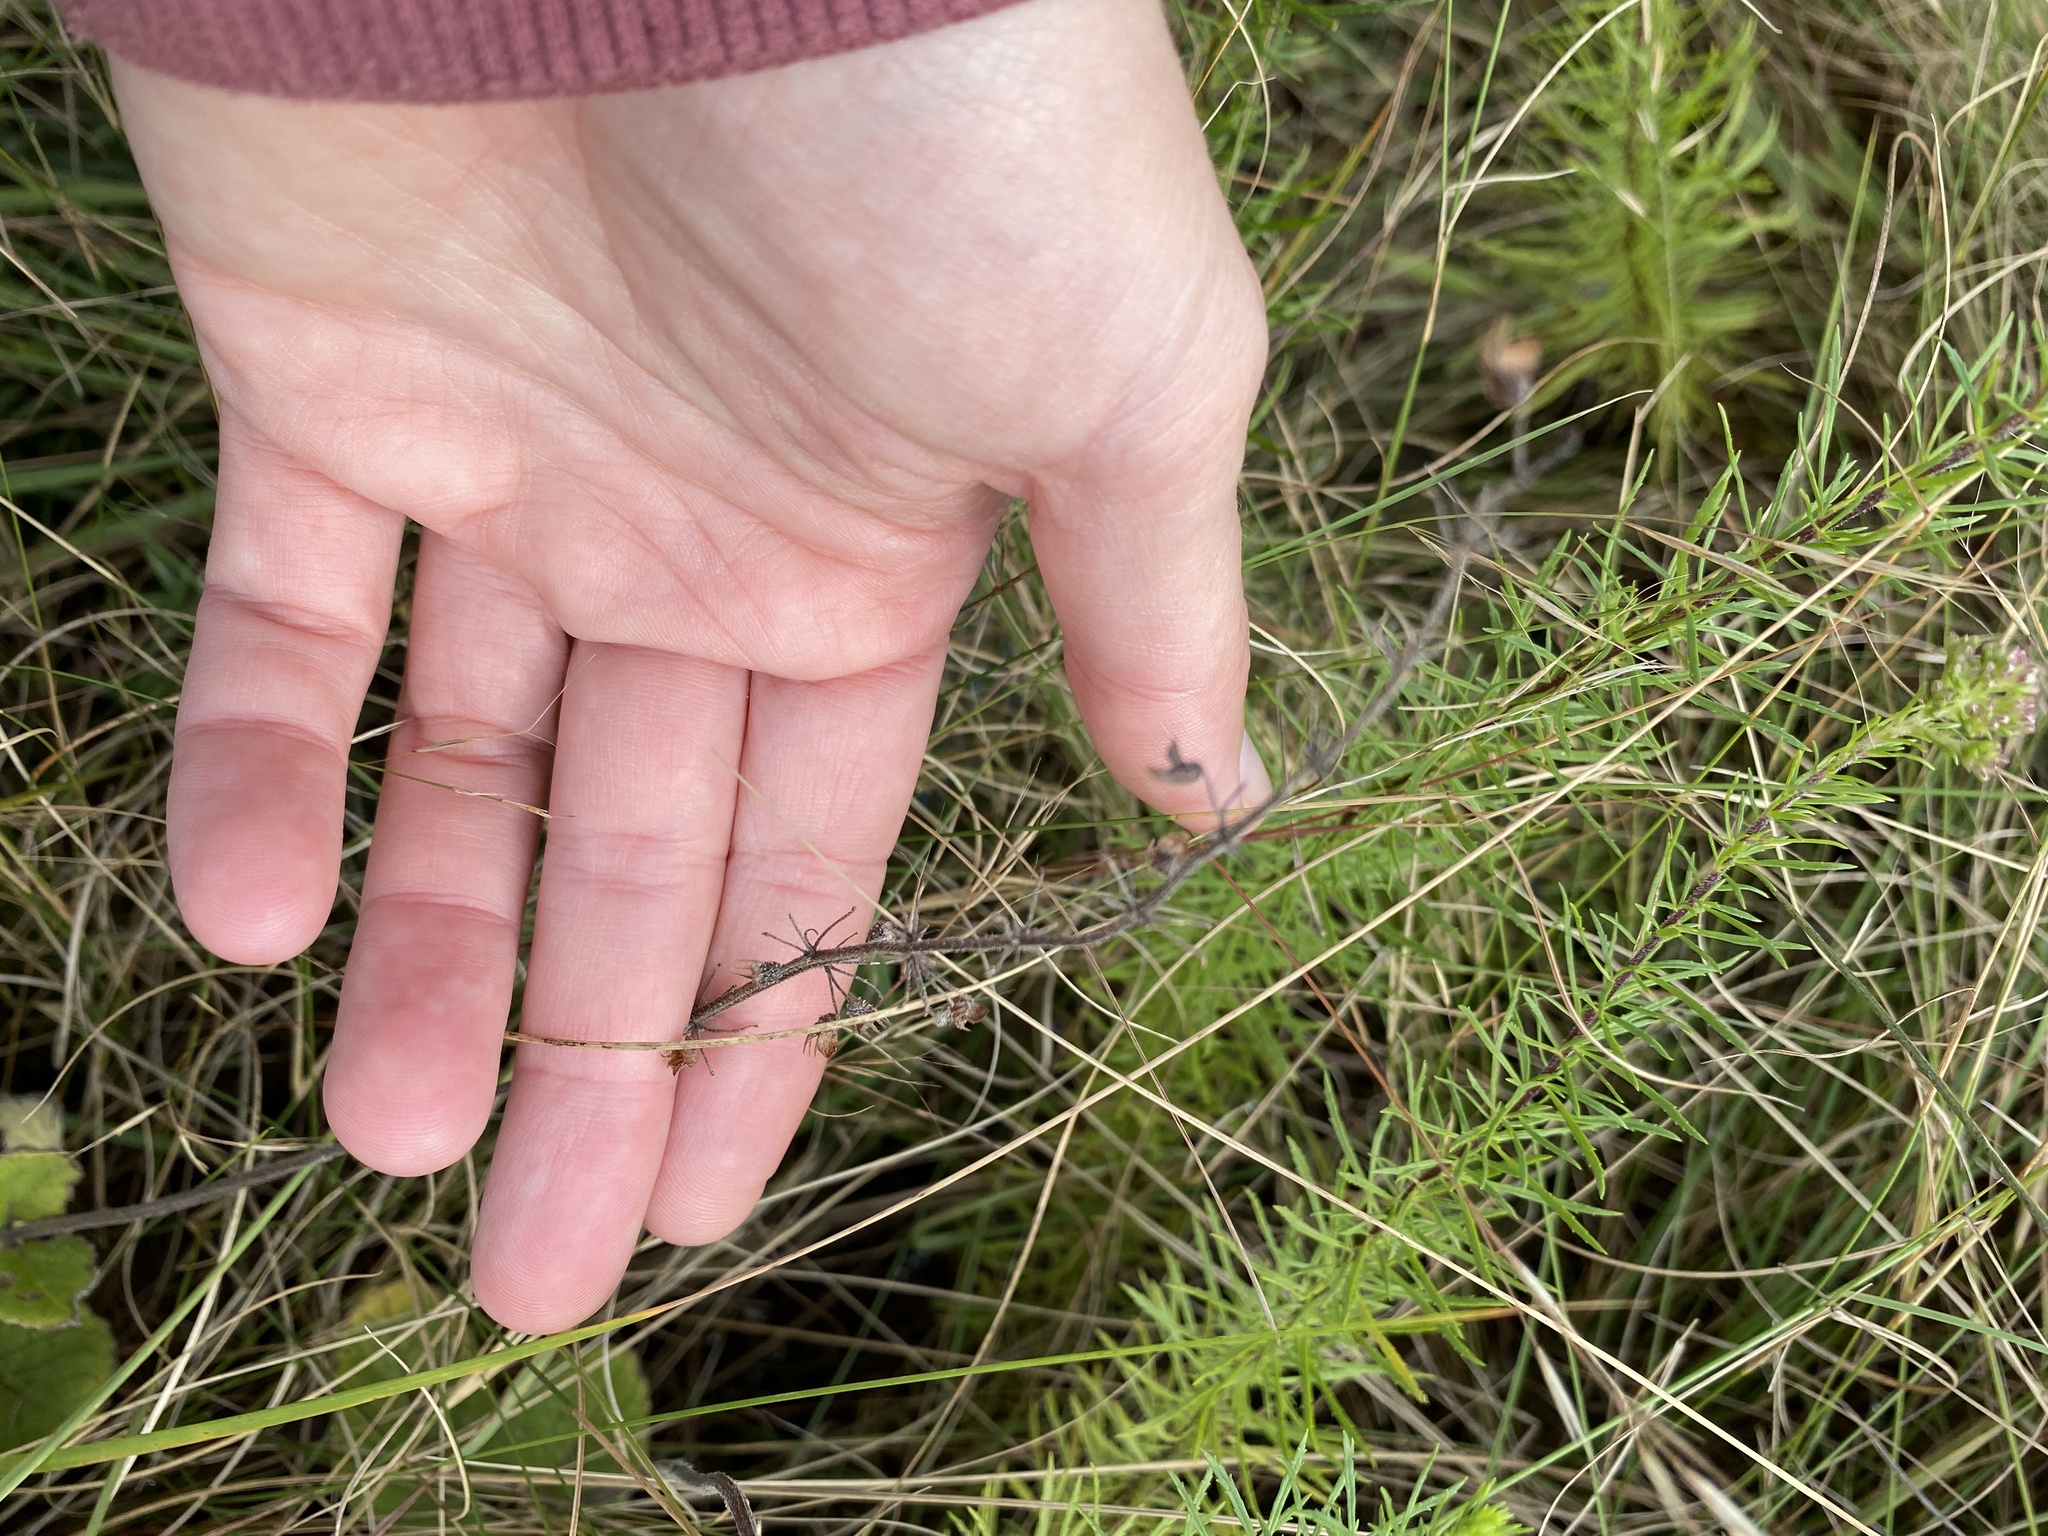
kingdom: Plantae
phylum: Tracheophyta
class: Magnoliopsida
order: Lamiales
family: Lamiaceae
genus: Coleus
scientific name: Coleus hadiensis
